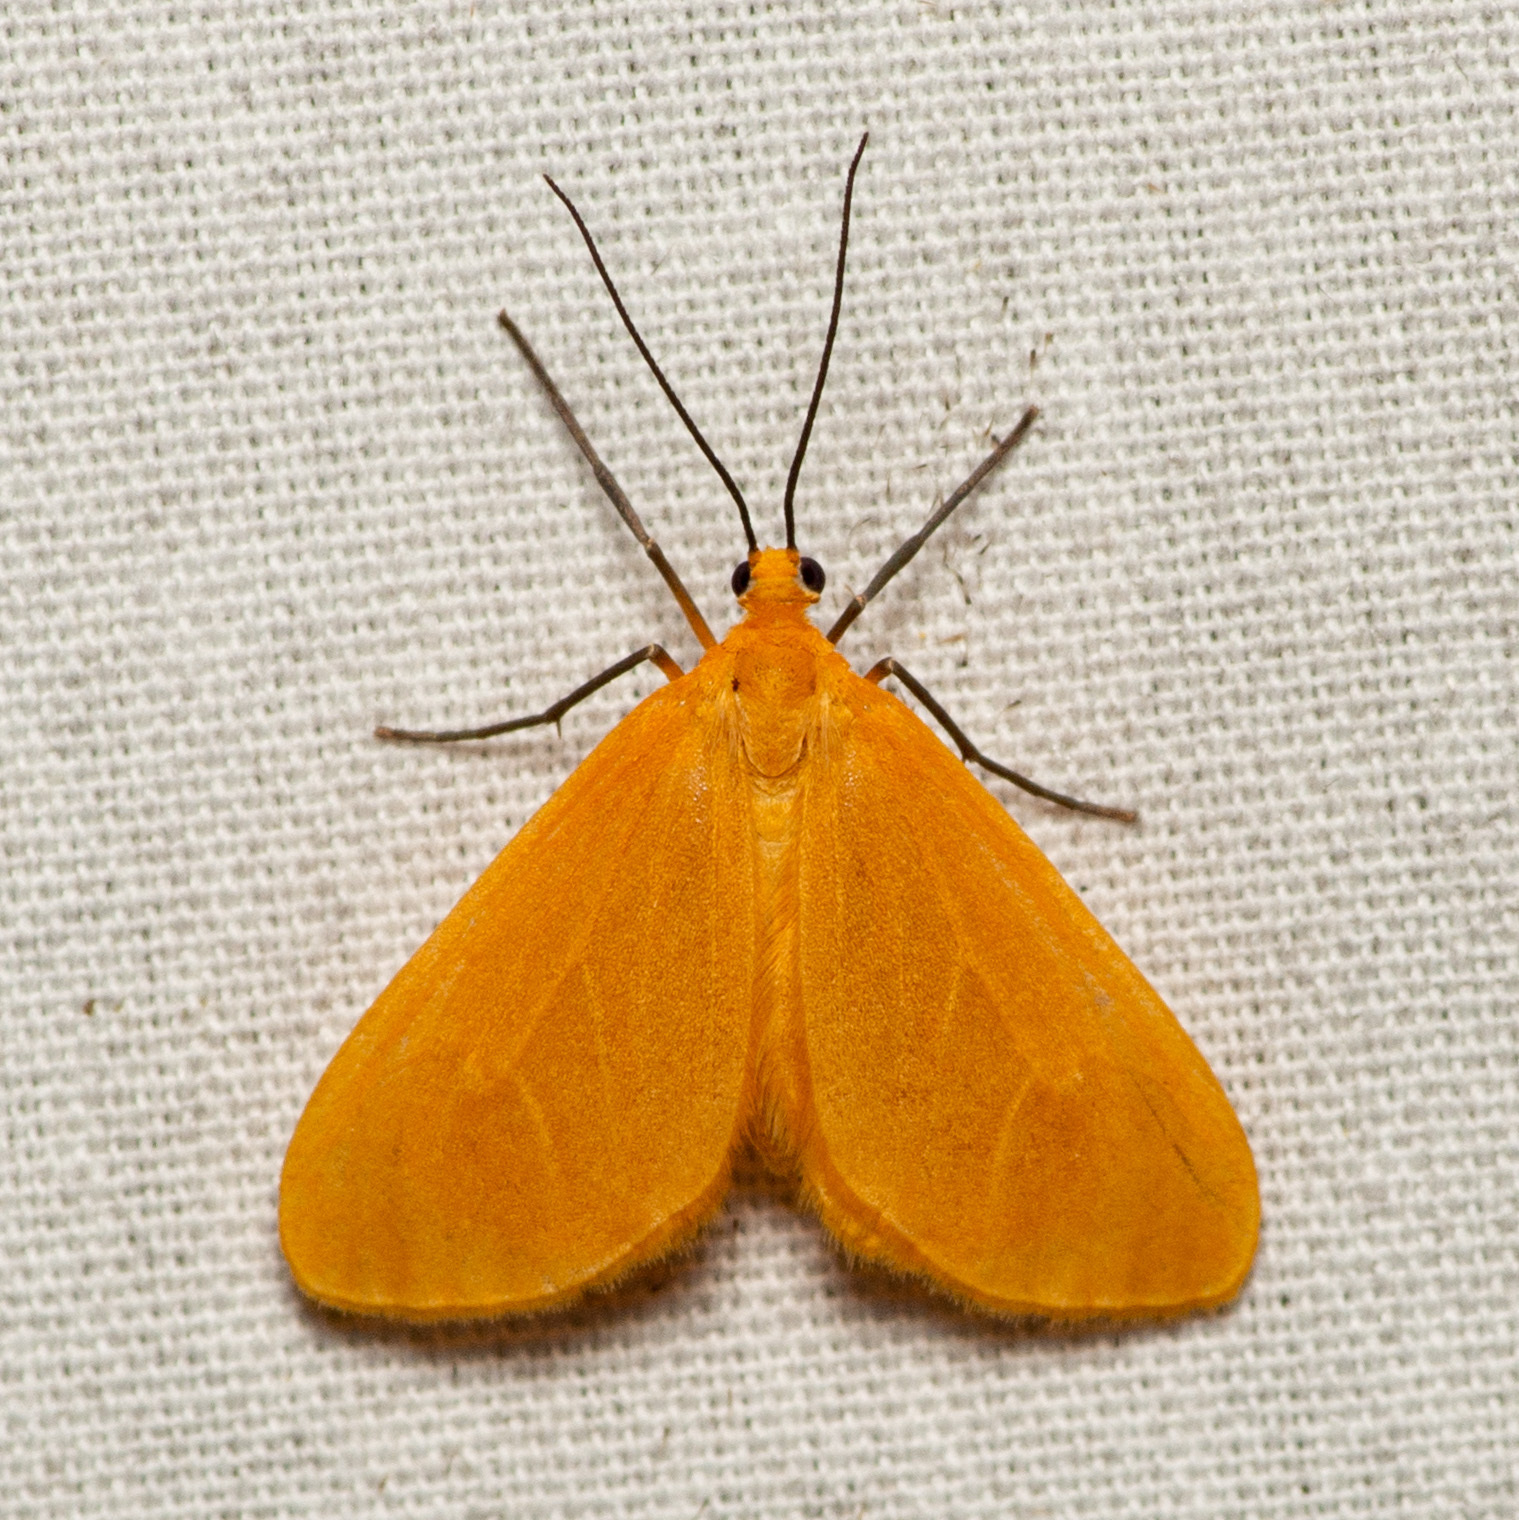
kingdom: Animalia
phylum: Arthropoda
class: Insecta
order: Lepidoptera
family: Geometridae
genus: Eubaphe
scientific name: Eubaphe unicolor
